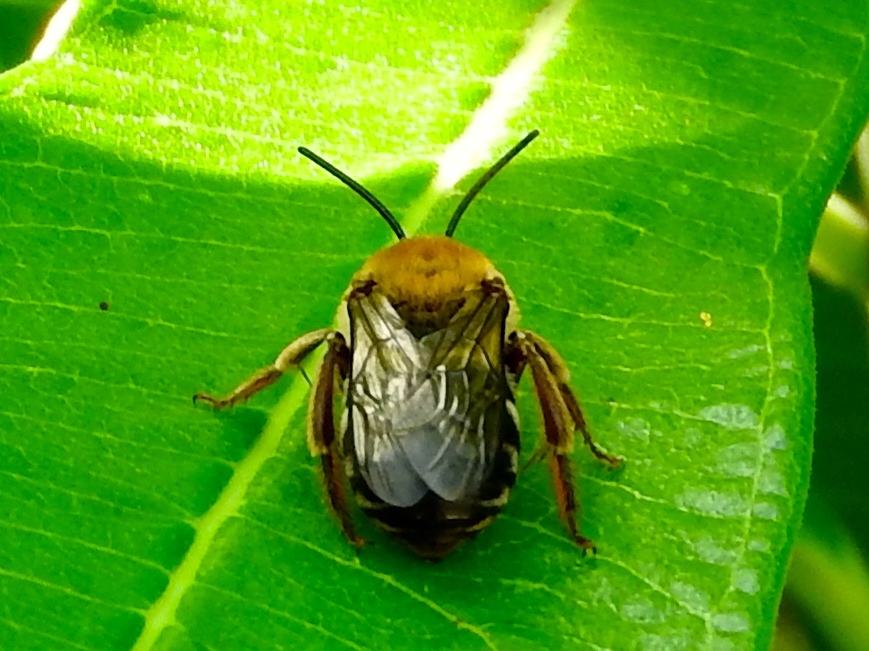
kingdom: Animalia
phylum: Arthropoda
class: Insecta
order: Hymenoptera
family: Apidae
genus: Peponapis
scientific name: Peponapis
